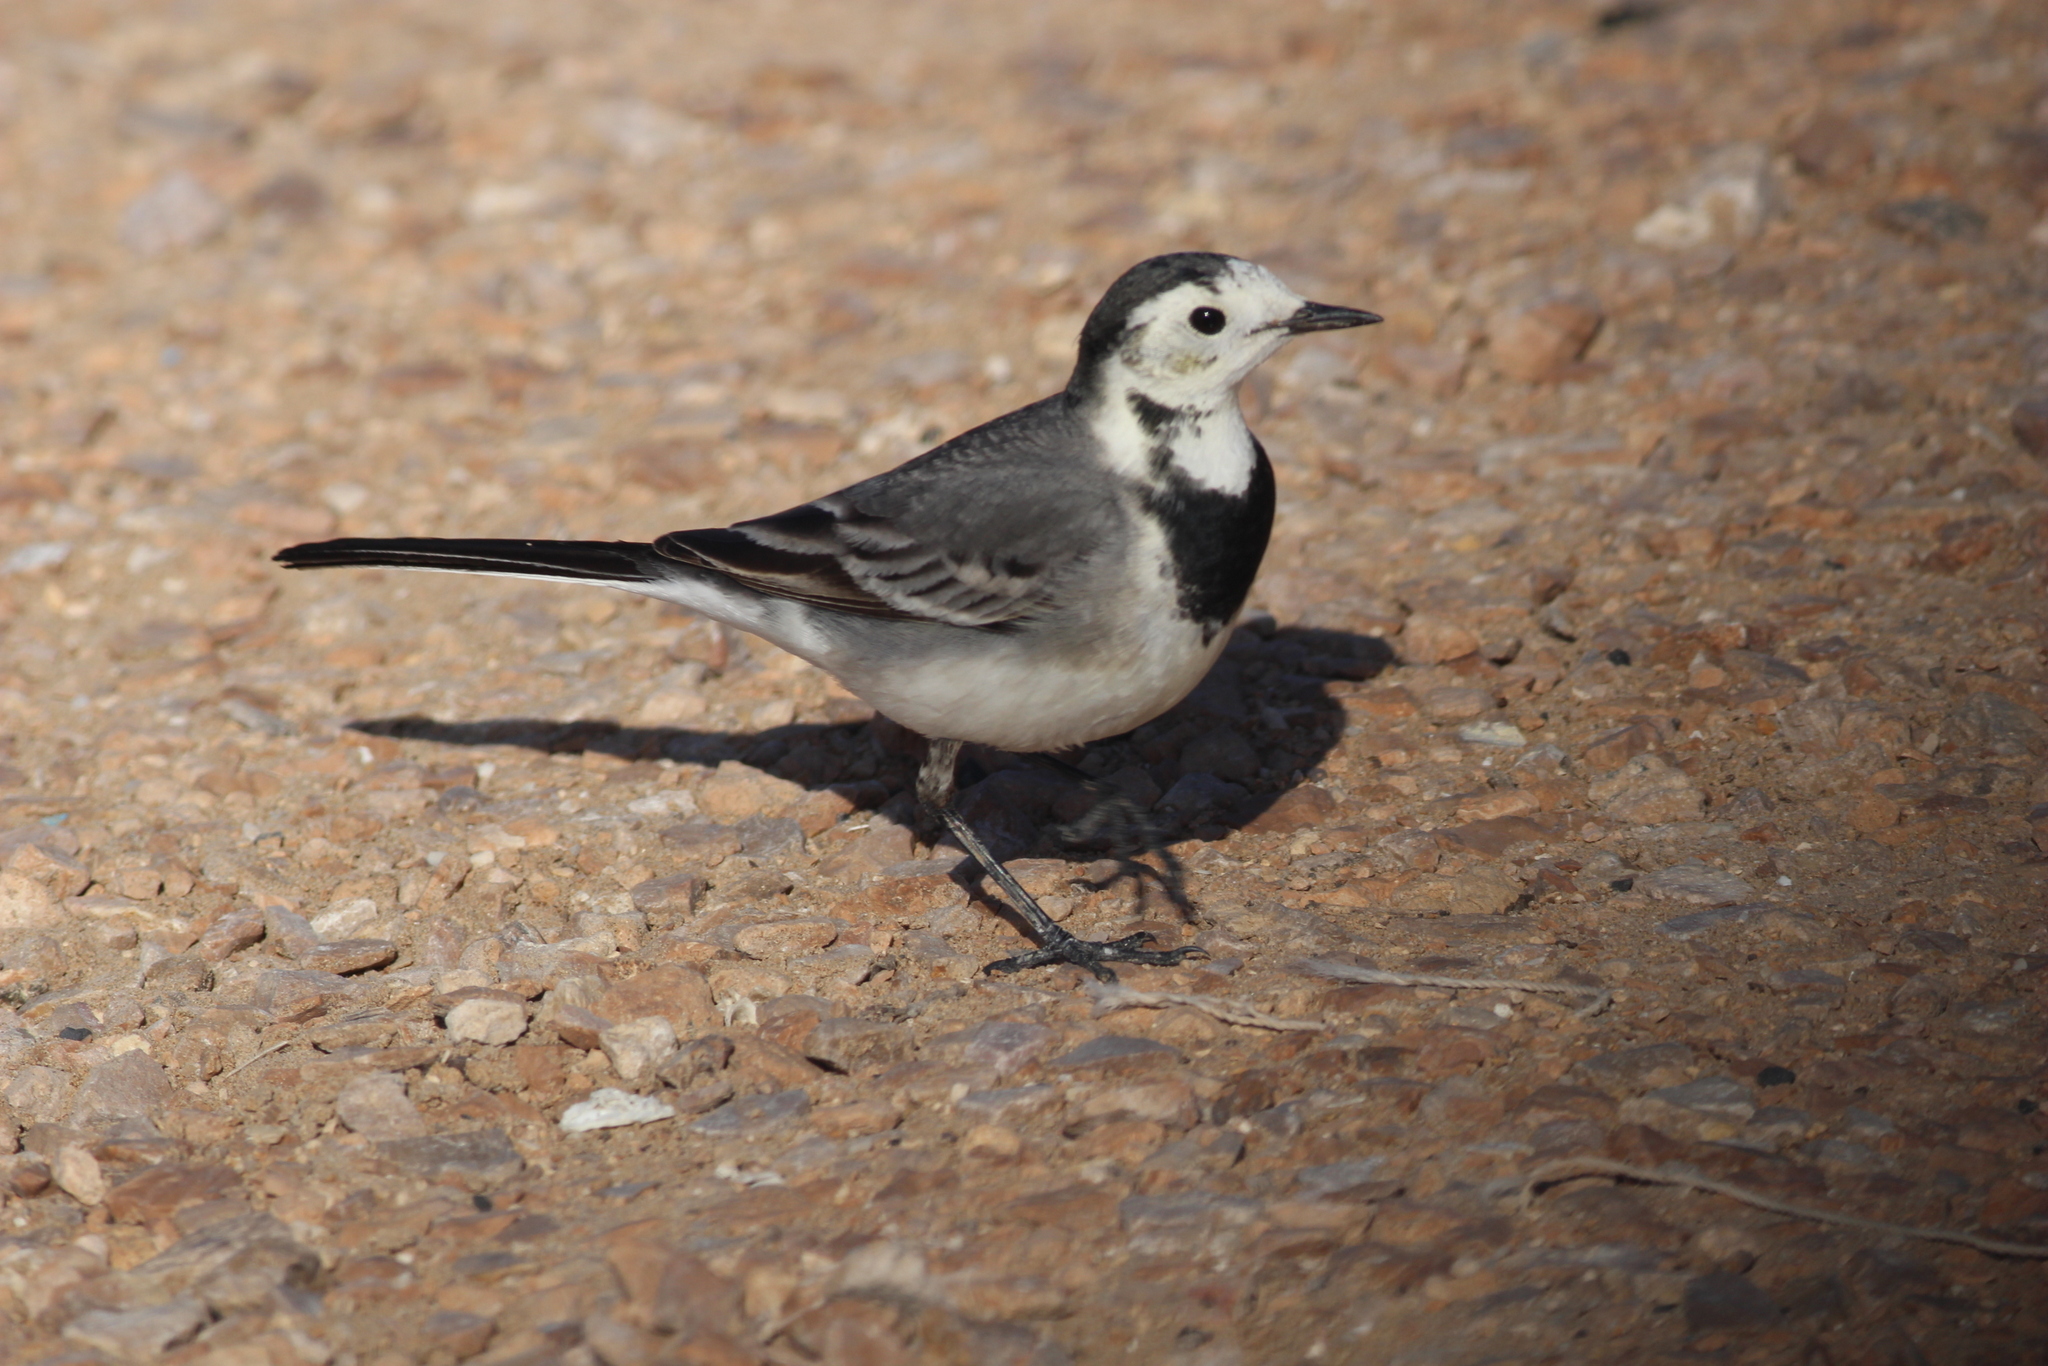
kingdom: Animalia
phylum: Chordata
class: Aves
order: Passeriformes
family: Motacillidae
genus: Motacilla
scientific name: Motacilla alba
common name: White wagtail
